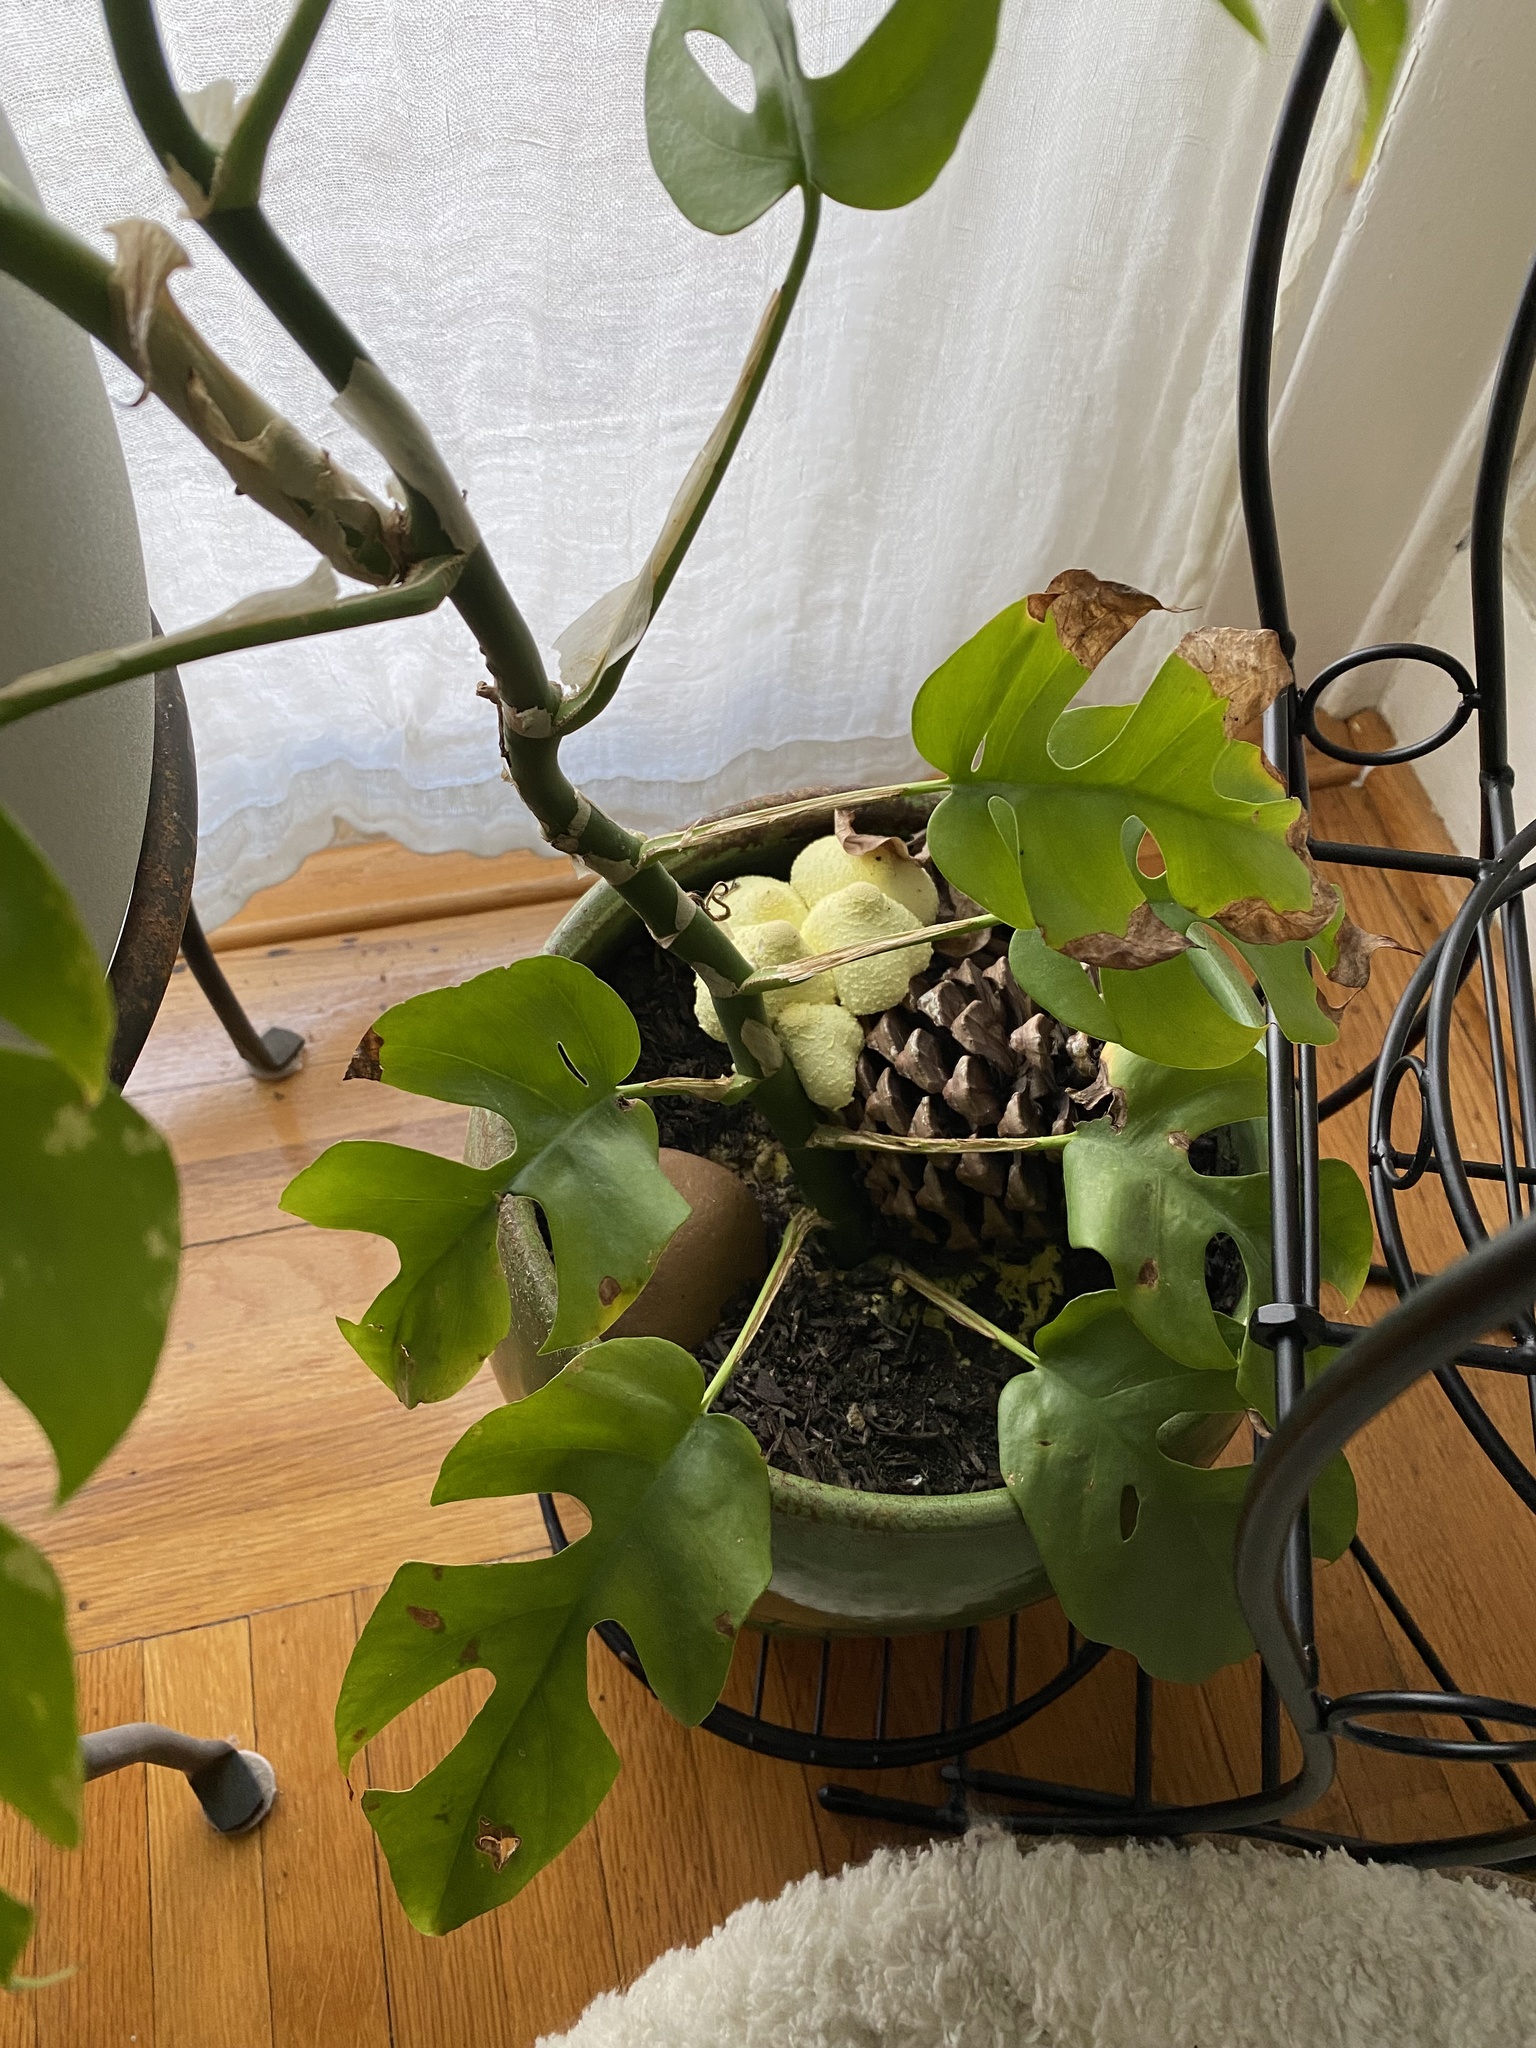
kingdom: Fungi
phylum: Basidiomycota
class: Agaricomycetes
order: Agaricales
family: Agaricaceae
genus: Leucocoprinus
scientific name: Leucocoprinus birnbaumii
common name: Plantpot dapperling
